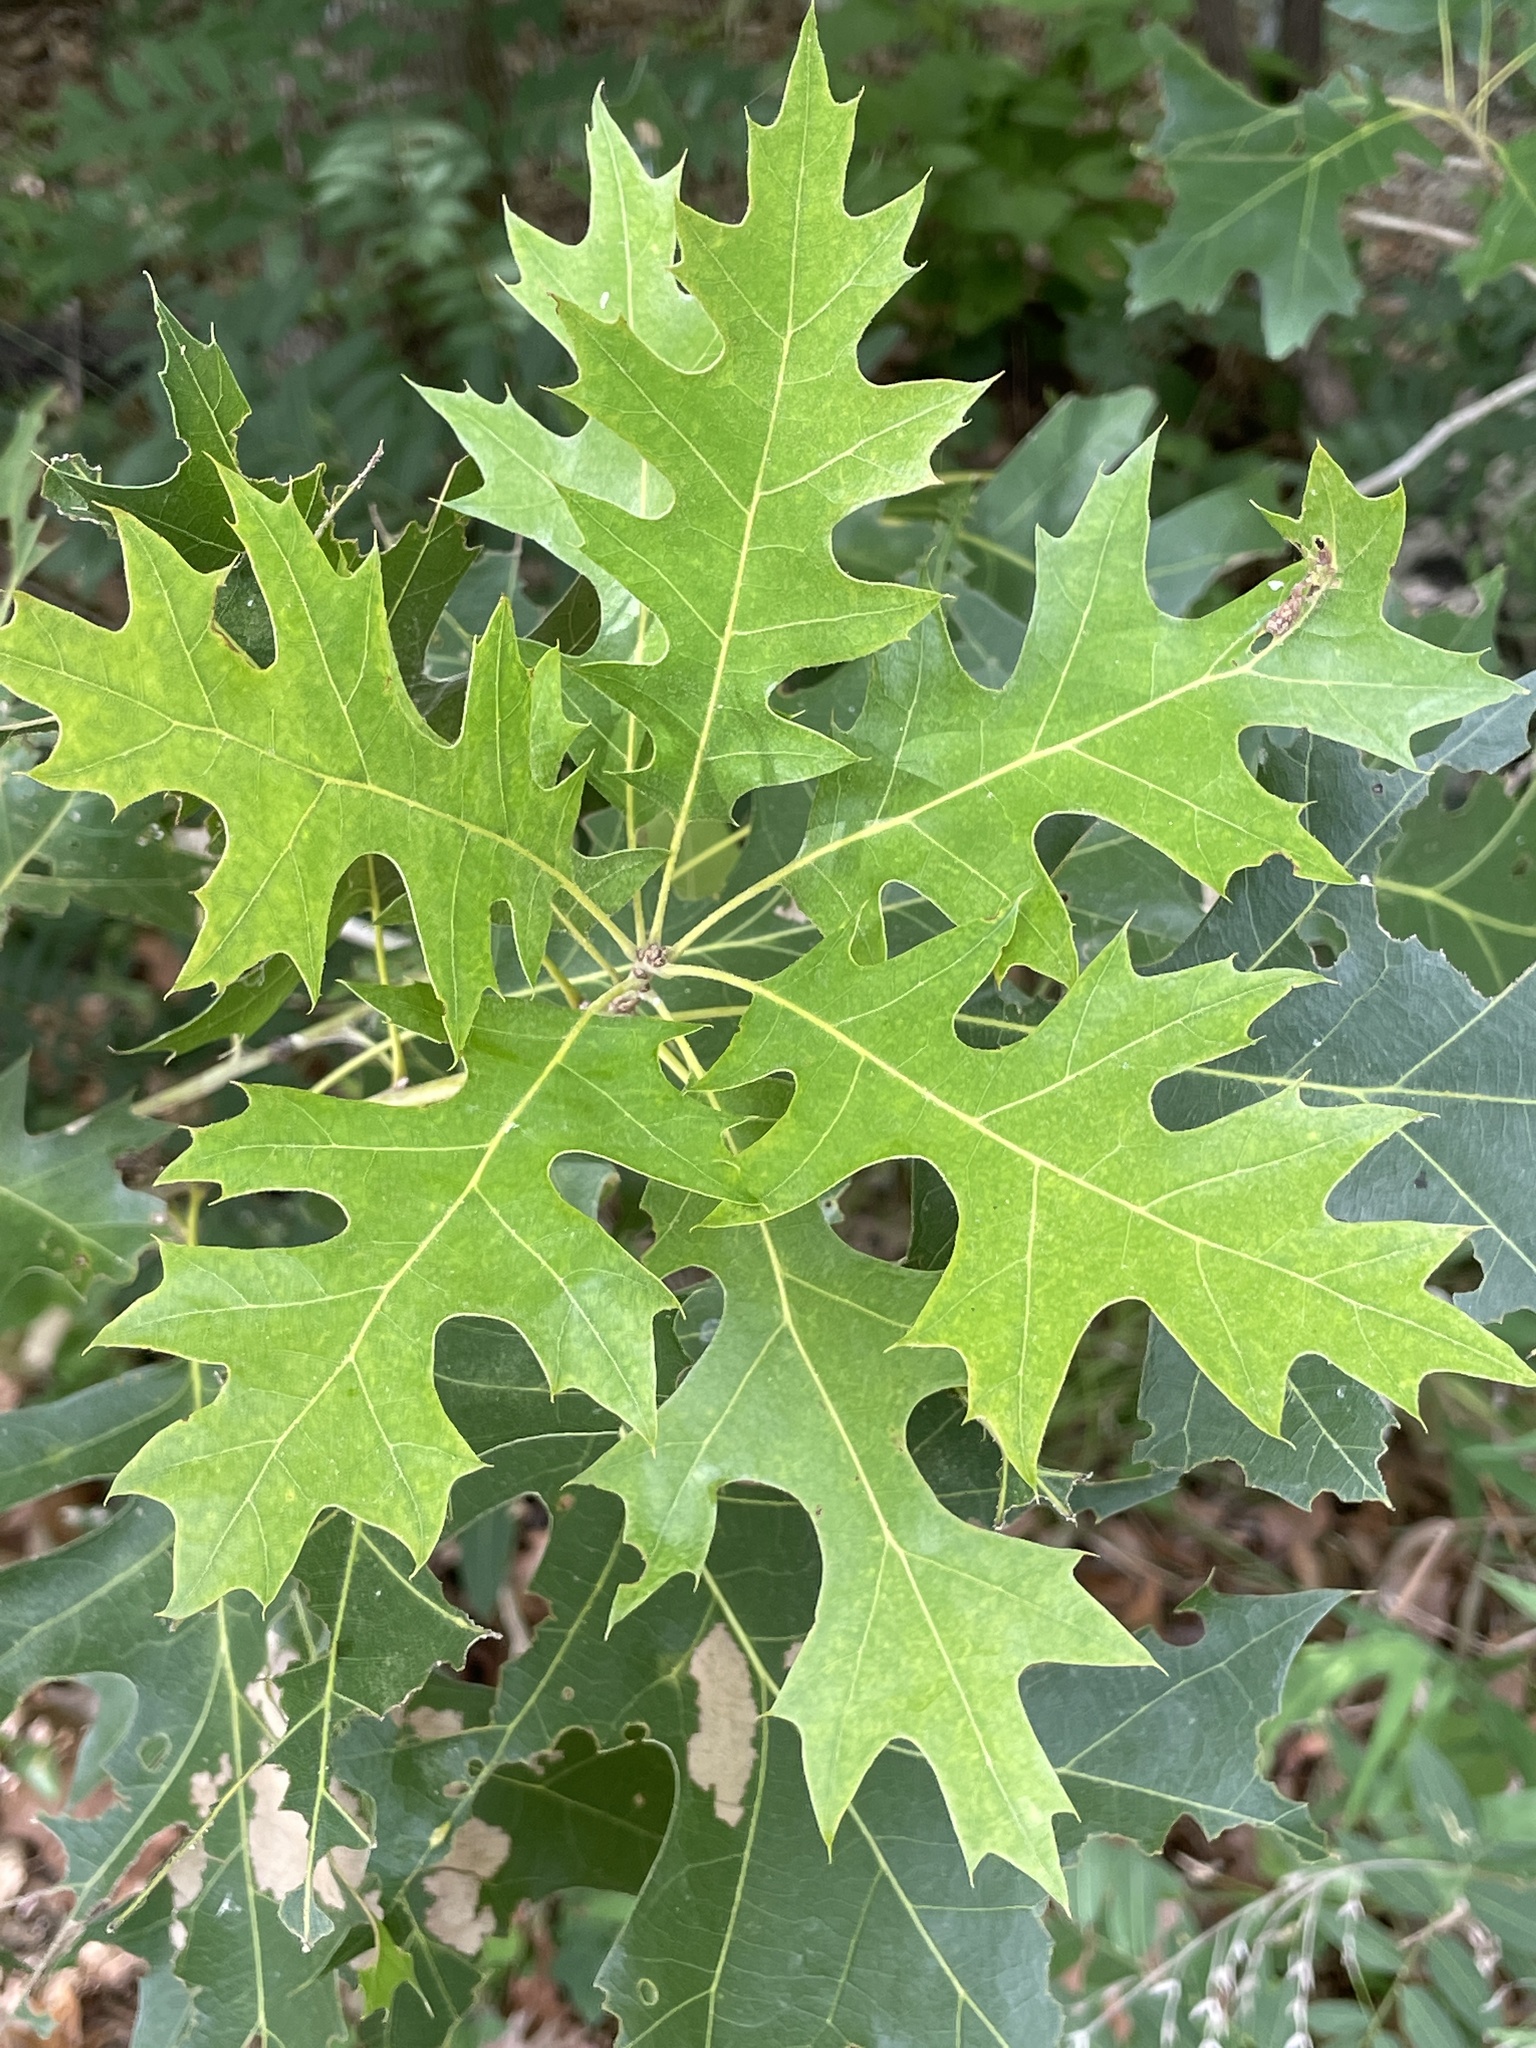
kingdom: Plantae
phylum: Tracheophyta
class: Magnoliopsida
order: Fagales
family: Fagaceae
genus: Quercus
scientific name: Quercus shumardii
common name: Shumard oak
